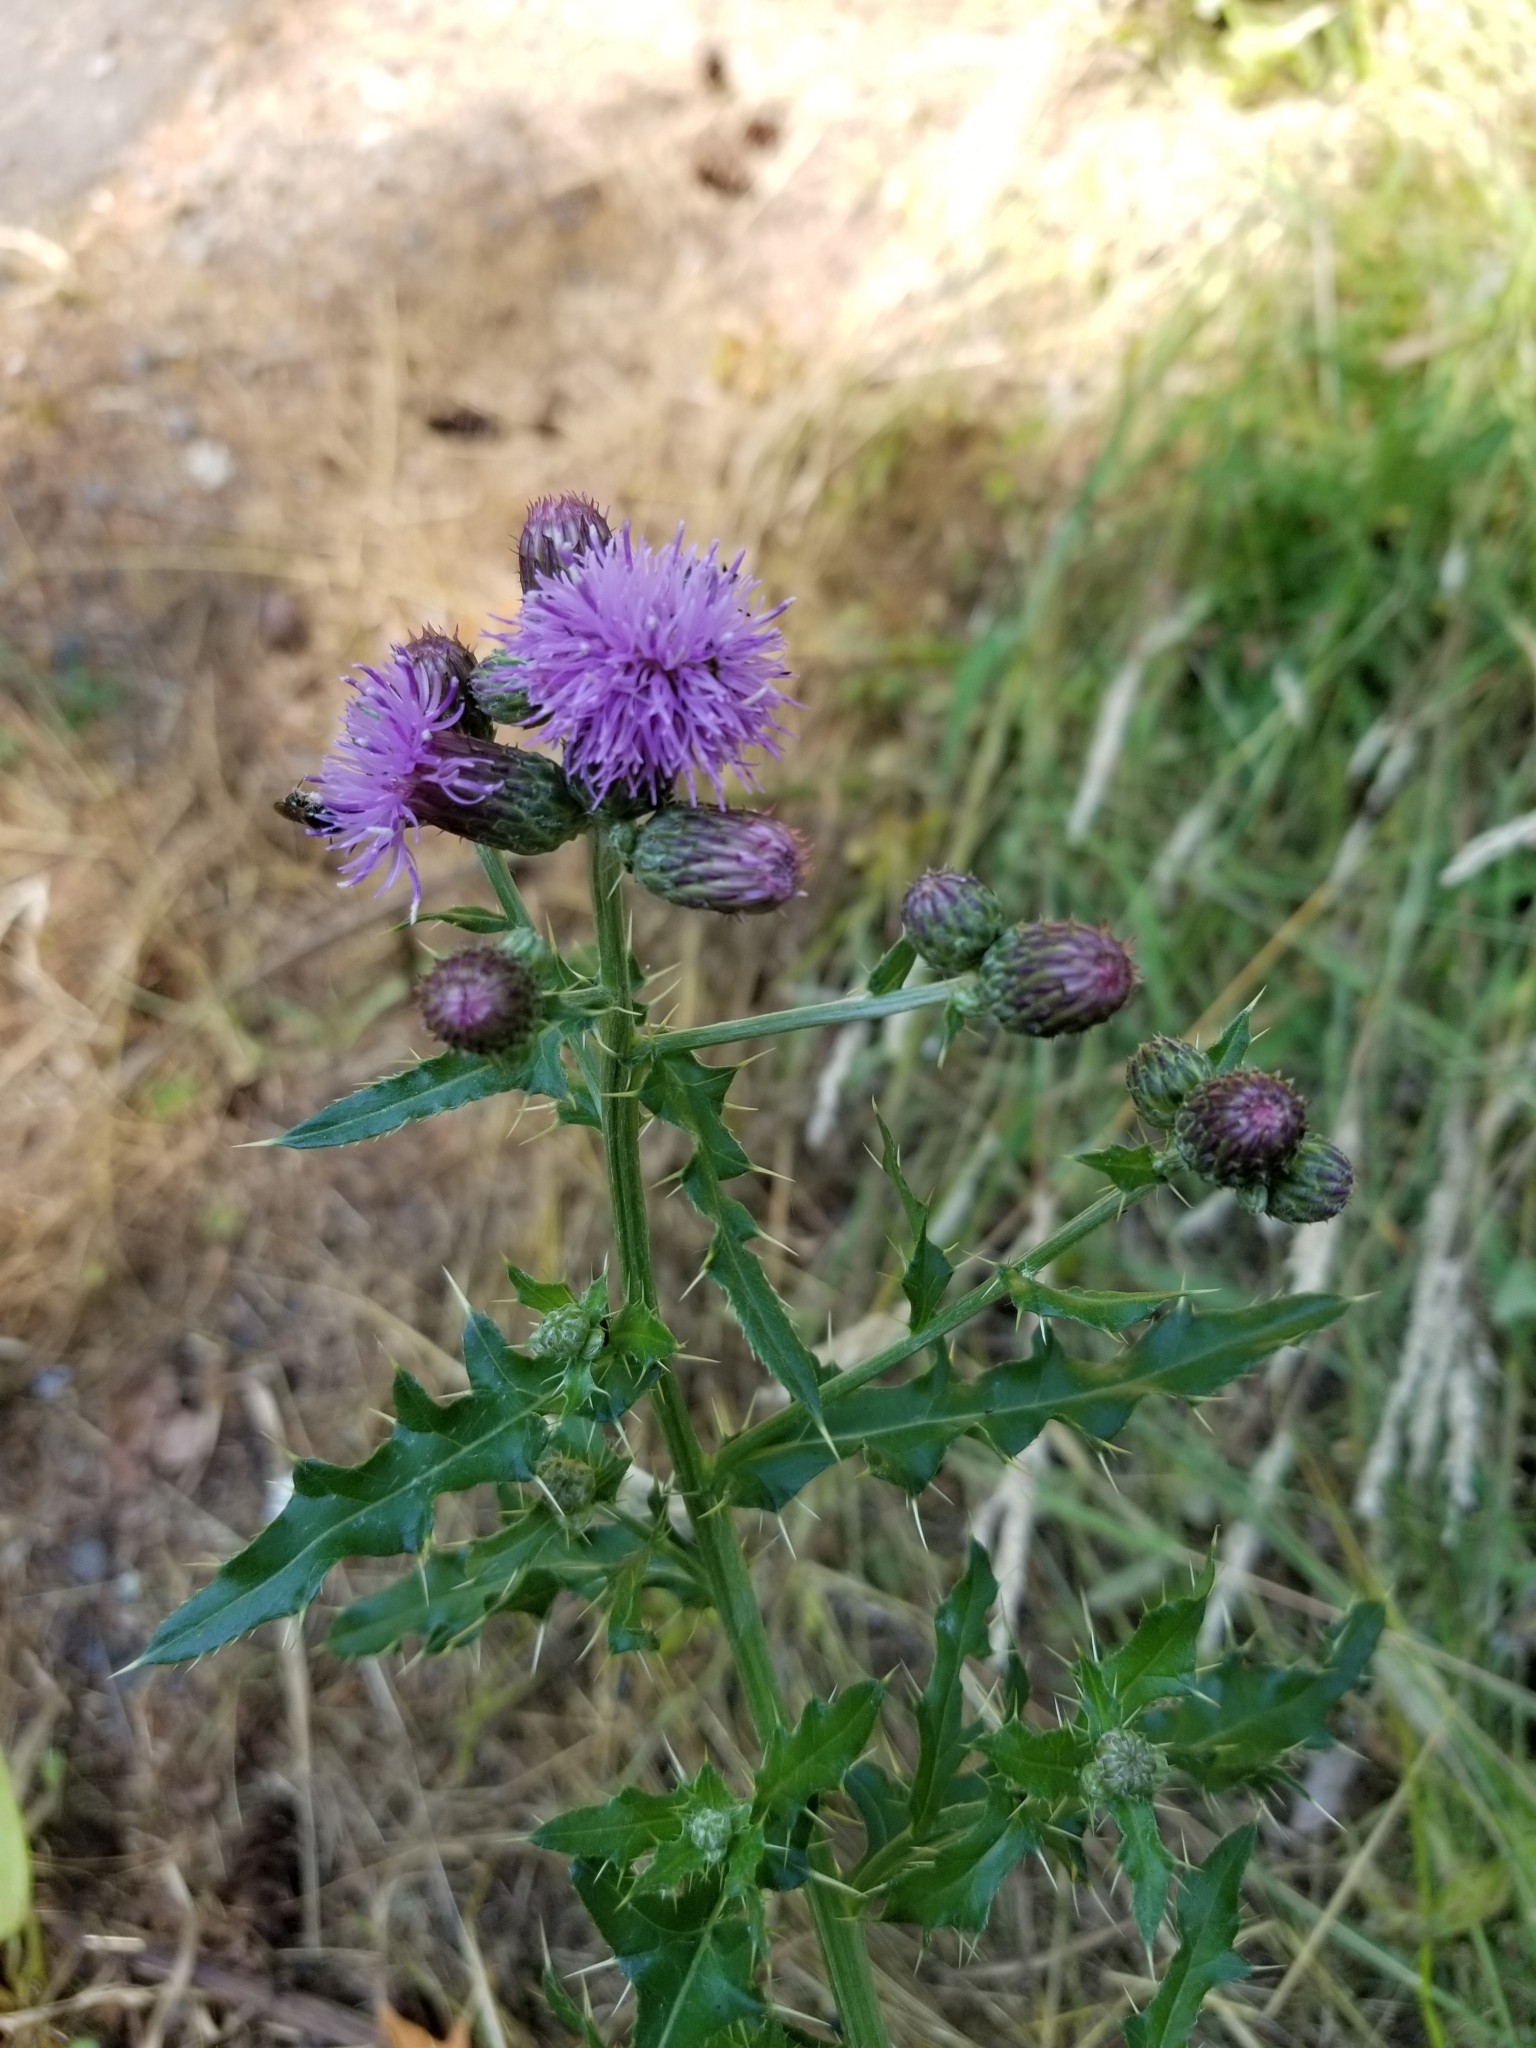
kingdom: Plantae
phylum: Tracheophyta
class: Magnoliopsida
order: Asterales
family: Asteraceae
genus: Cirsium
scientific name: Cirsium arvense
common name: Creeping thistle
